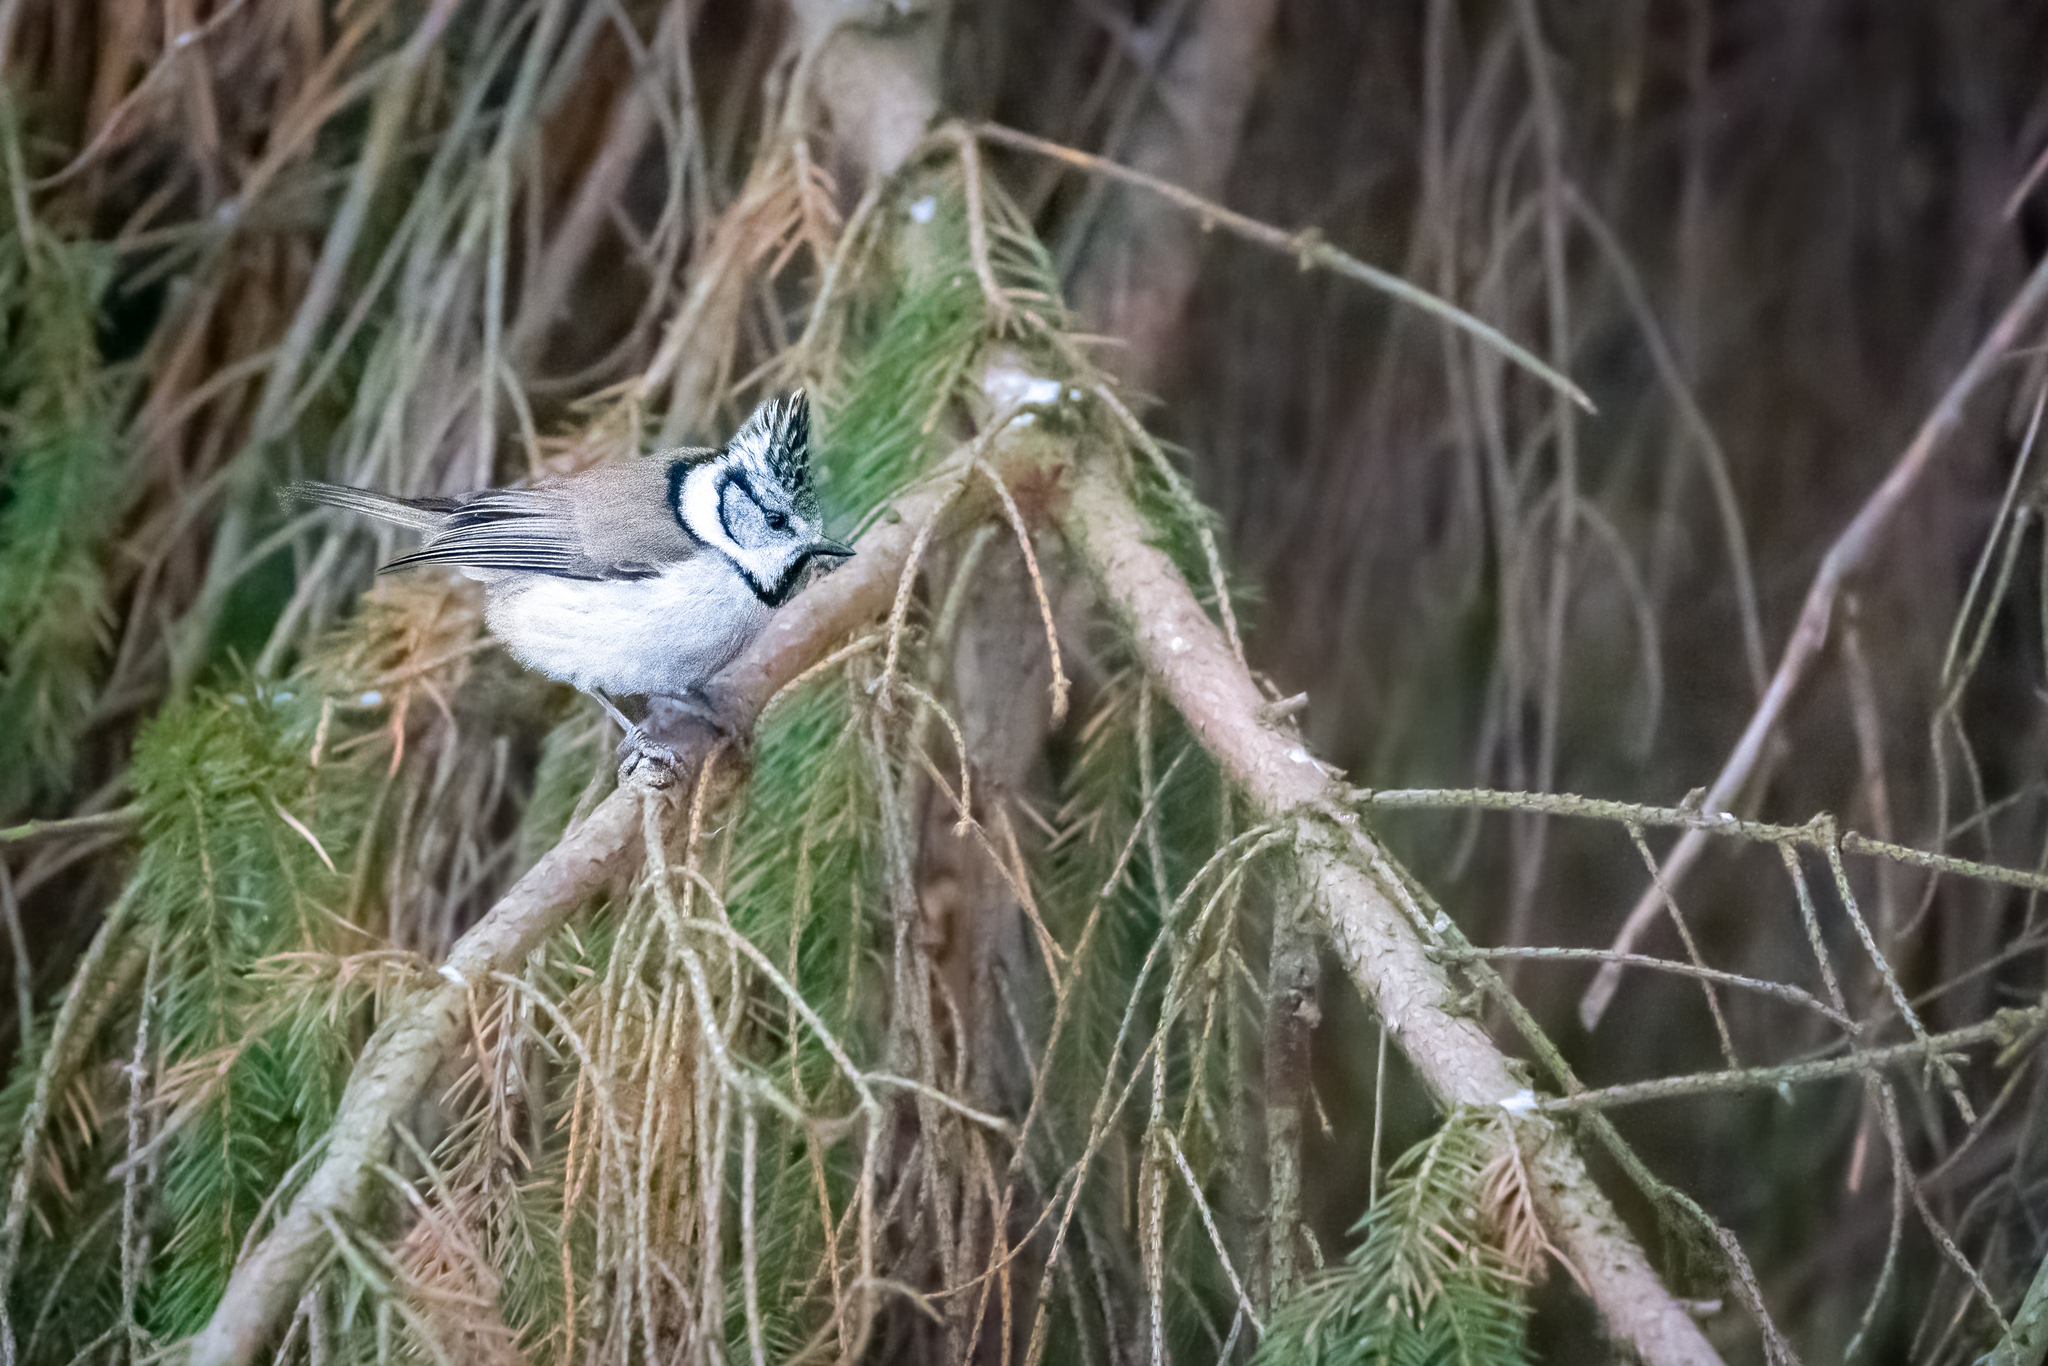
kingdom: Animalia
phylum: Chordata
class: Aves
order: Passeriformes
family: Paridae
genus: Lophophanes
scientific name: Lophophanes cristatus
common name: European crested tit
